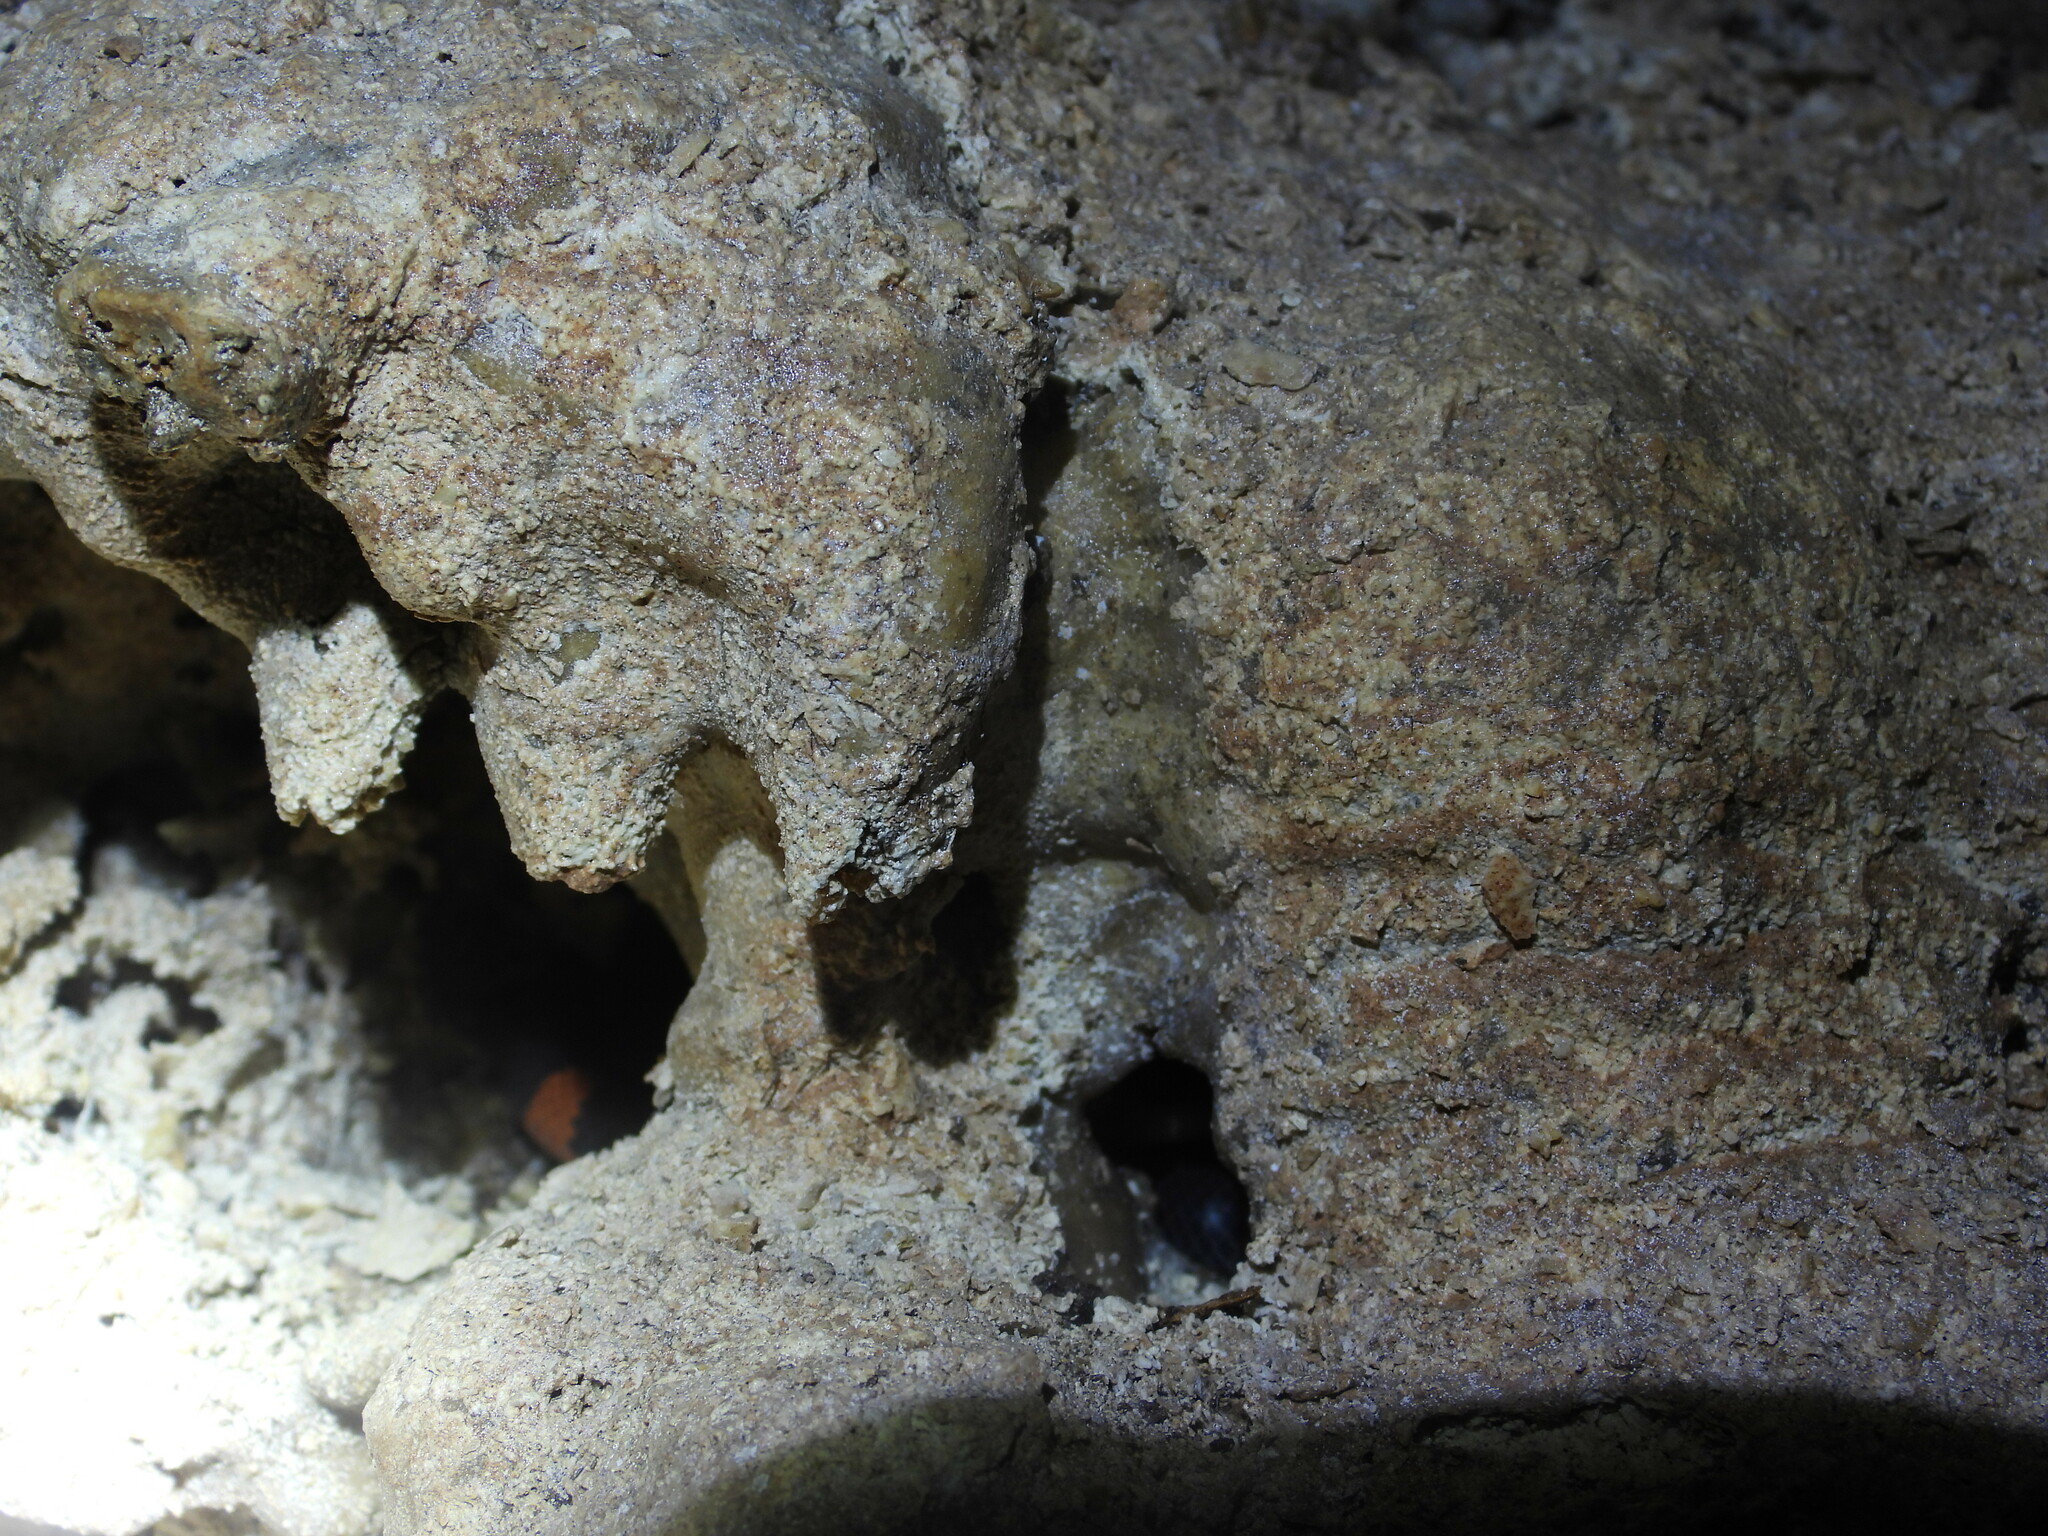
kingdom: Animalia
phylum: Chordata
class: Squamata
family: Colubridae
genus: Geophis
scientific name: Geophis
